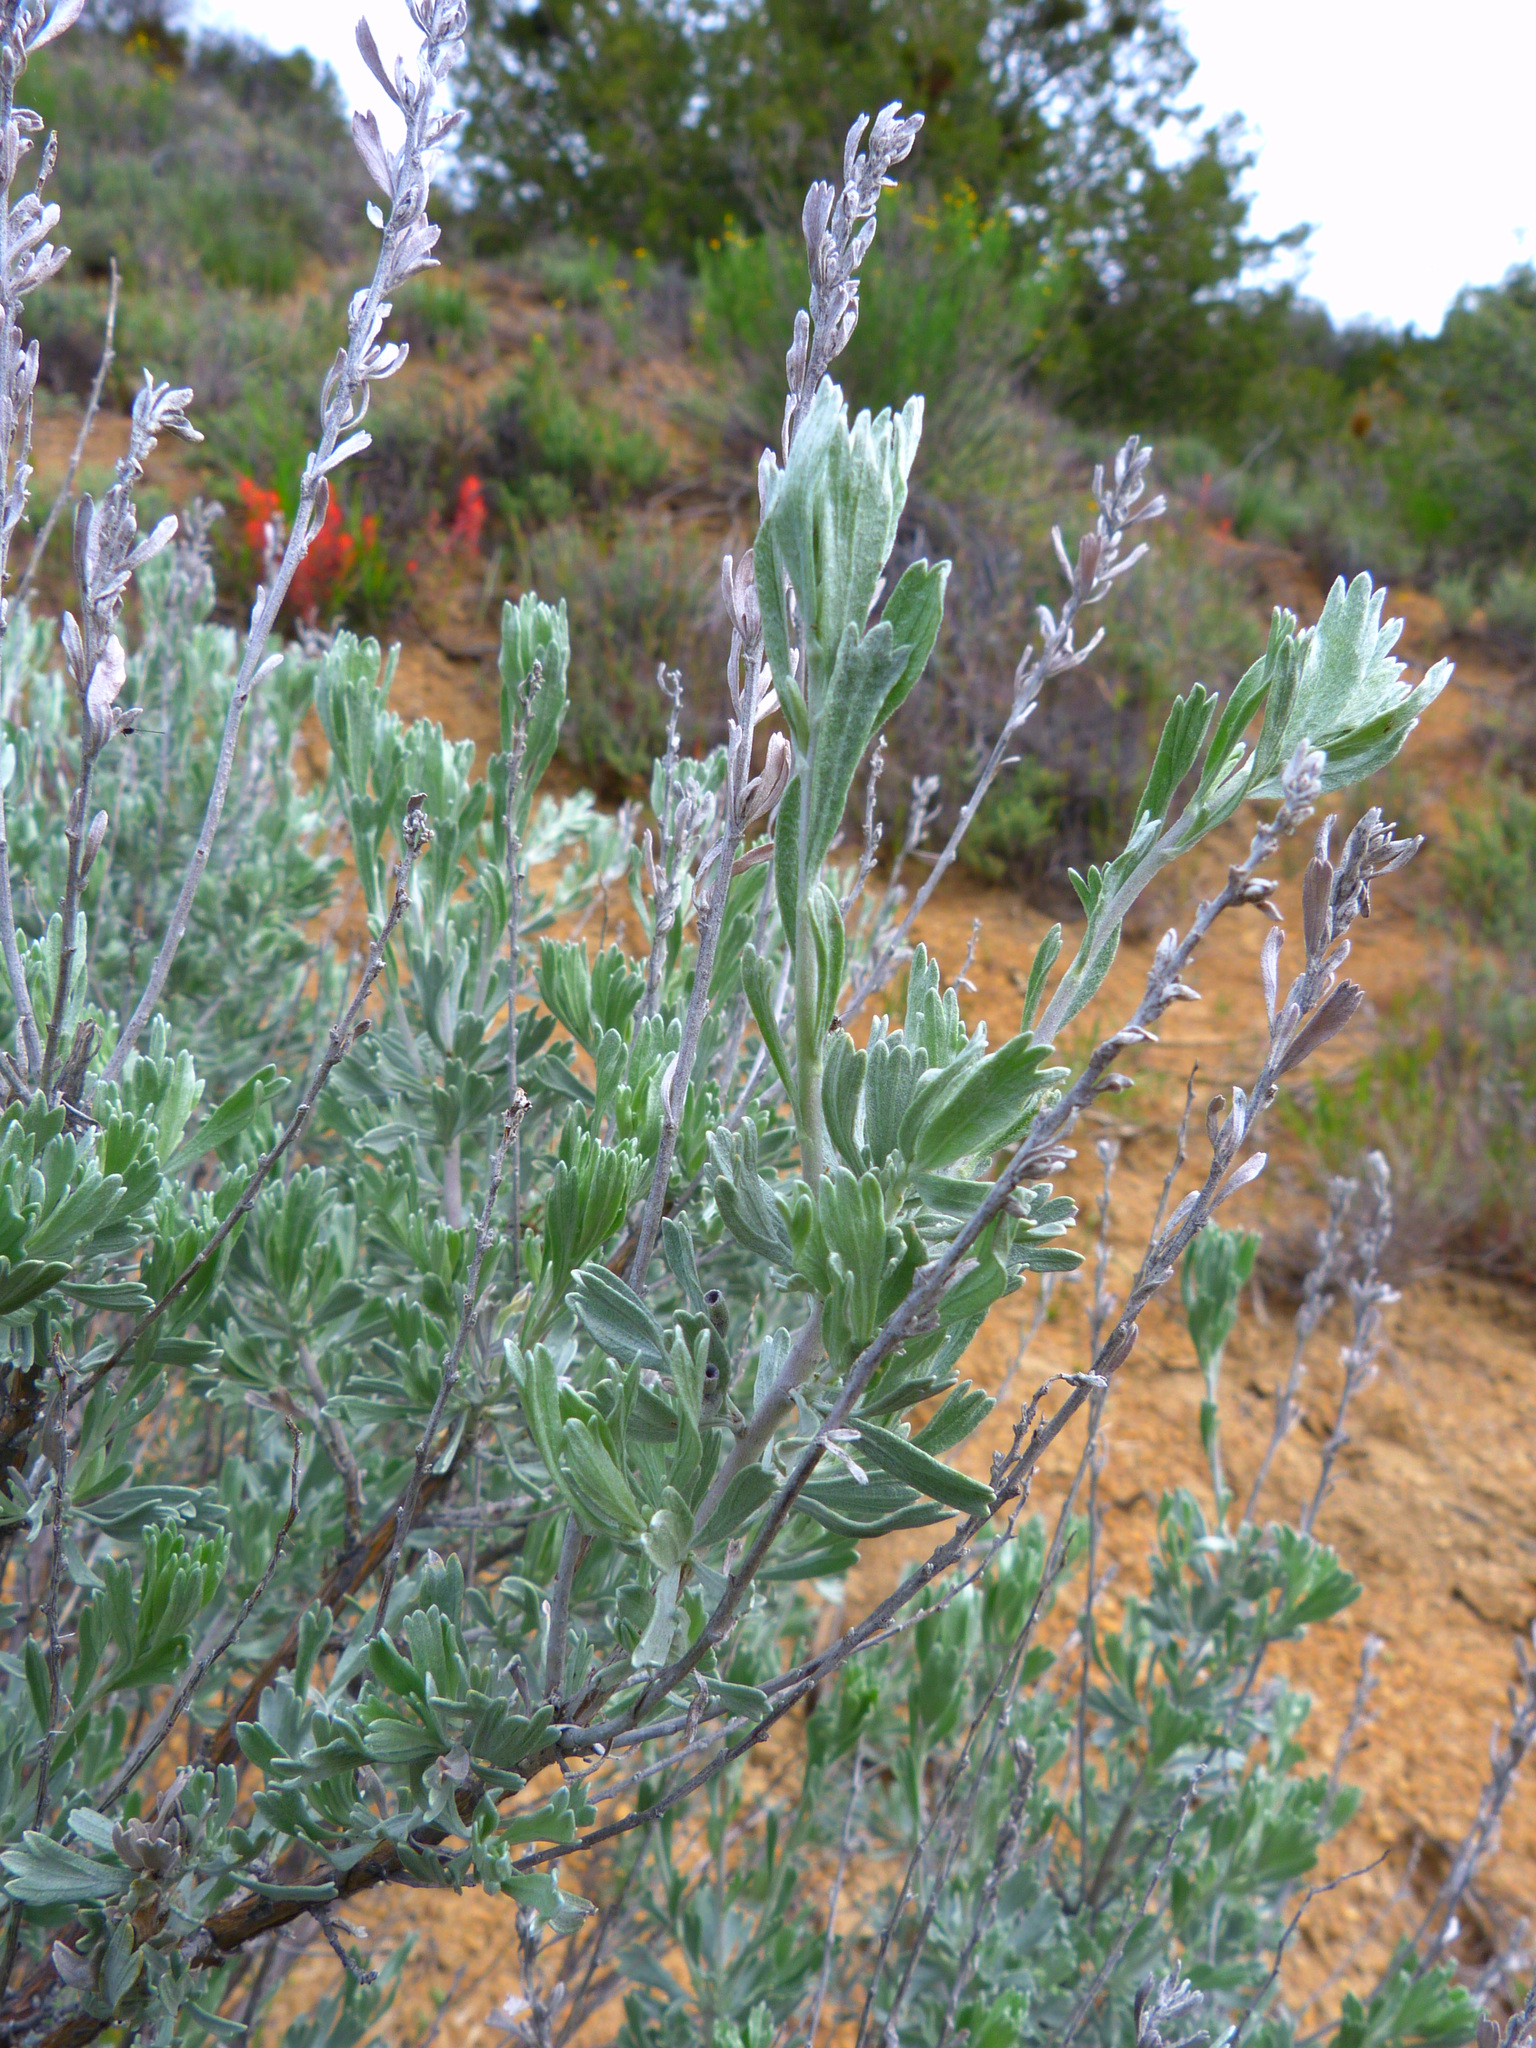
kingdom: Plantae
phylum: Tracheophyta
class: Magnoliopsida
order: Asterales
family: Asteraceae
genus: Artemisia
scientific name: Artemisia tridentata
